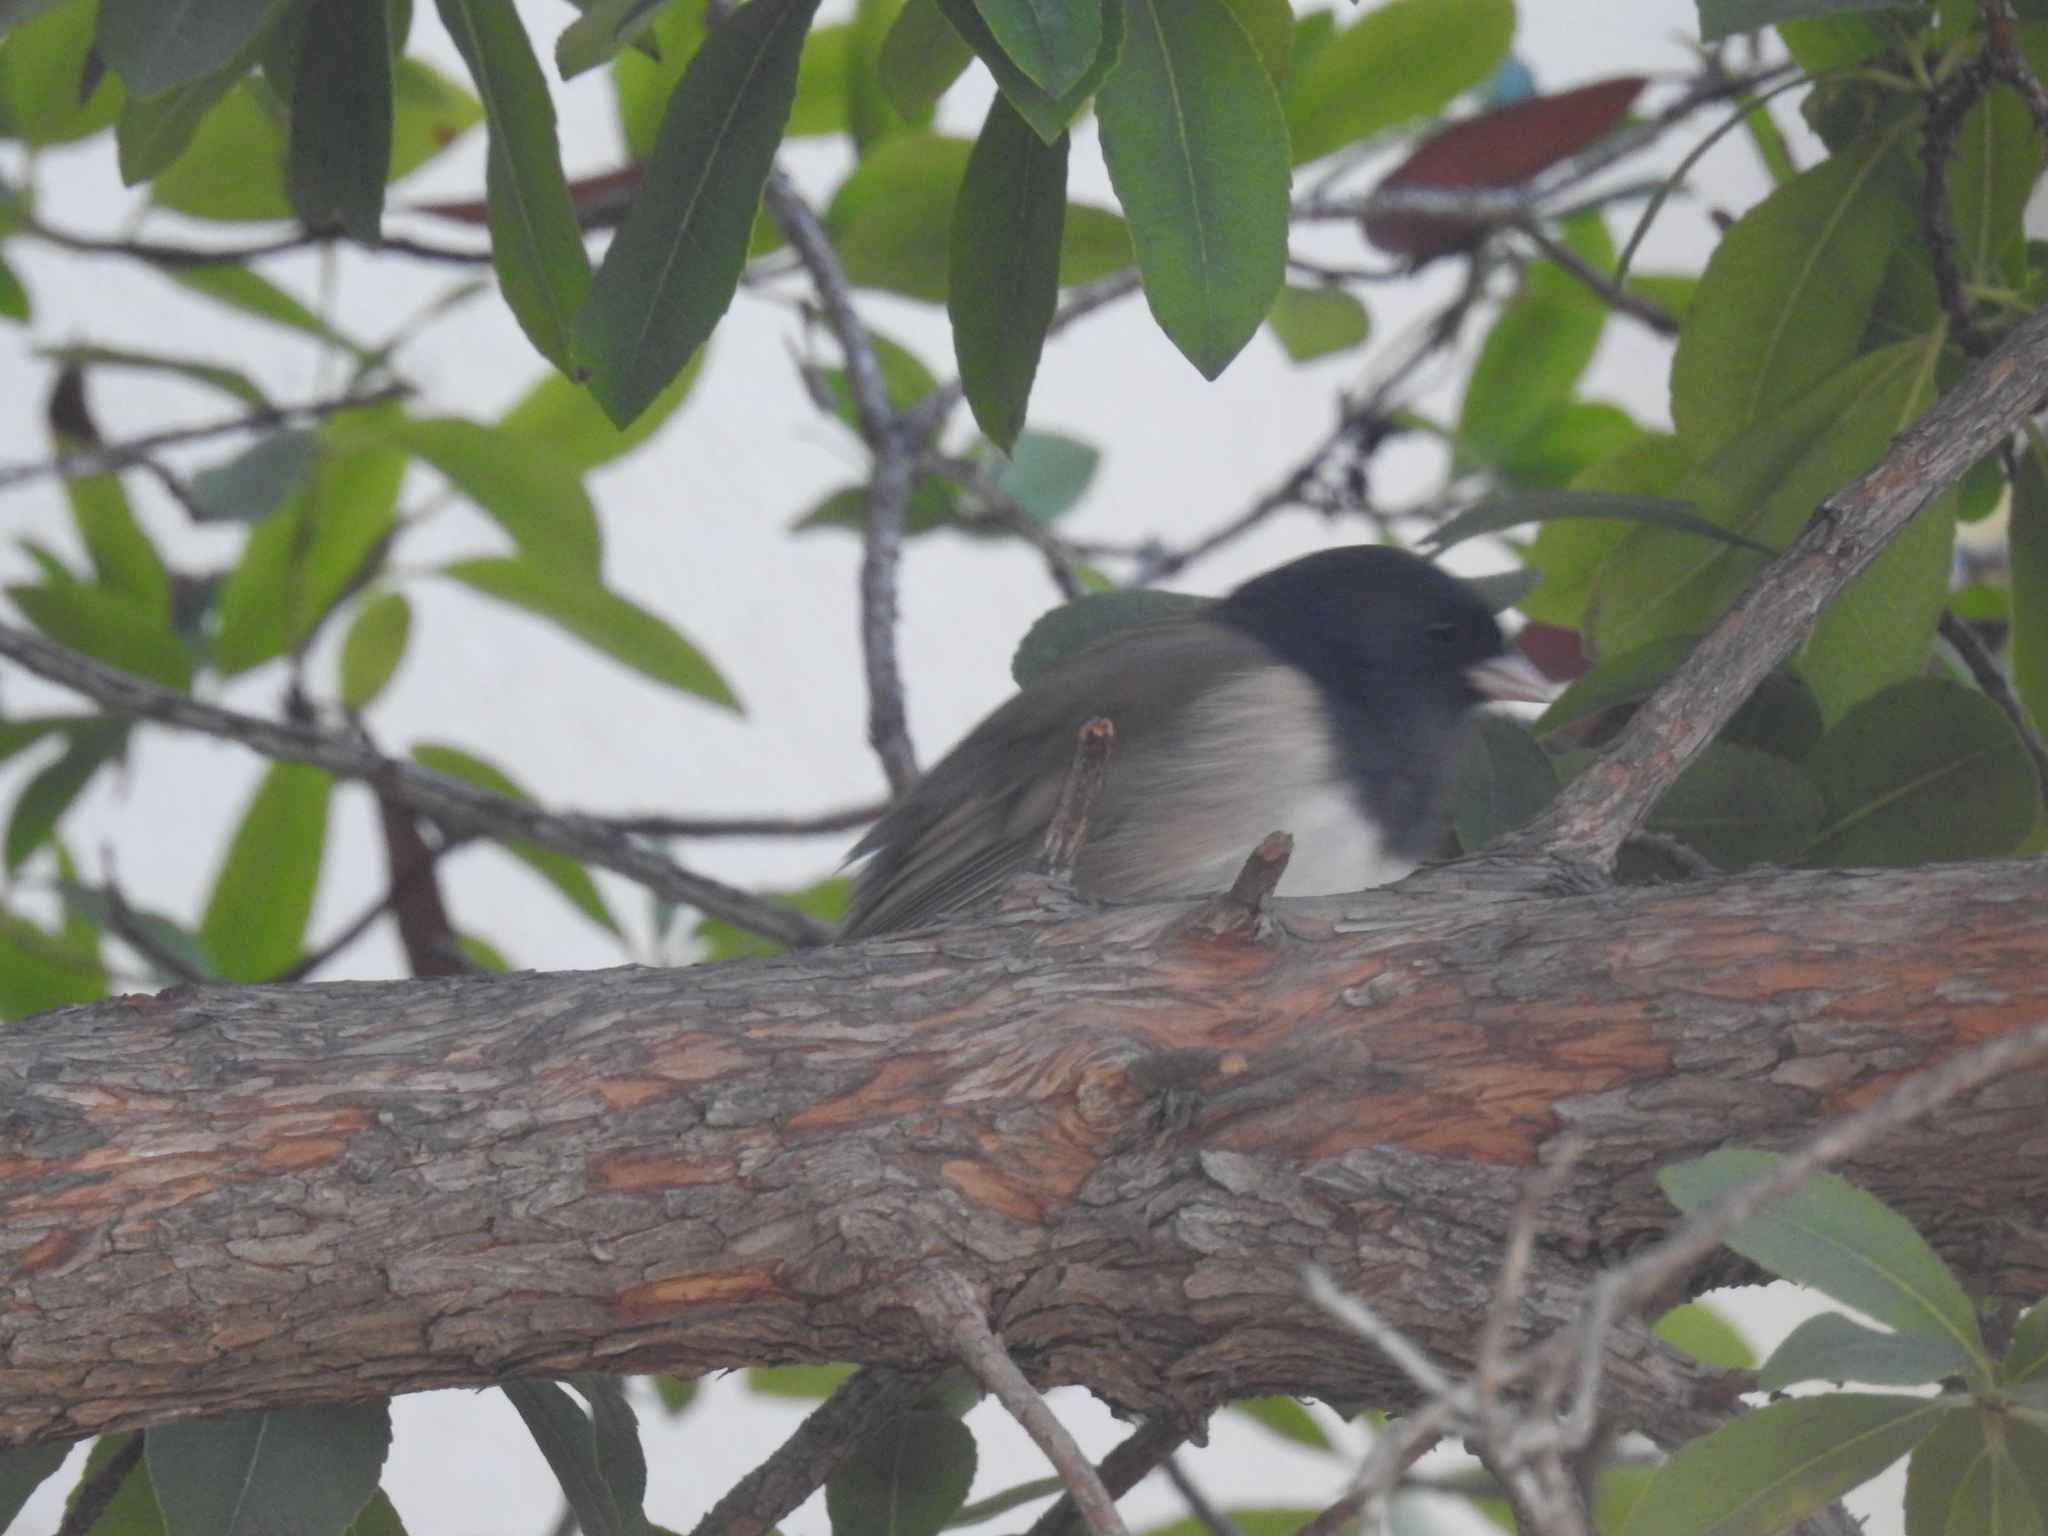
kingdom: Animalia
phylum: Chordata
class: Aves
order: Passeriformes
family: Passerellidae
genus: Junco
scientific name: Junco hyemalis
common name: Dark-eyed junco
